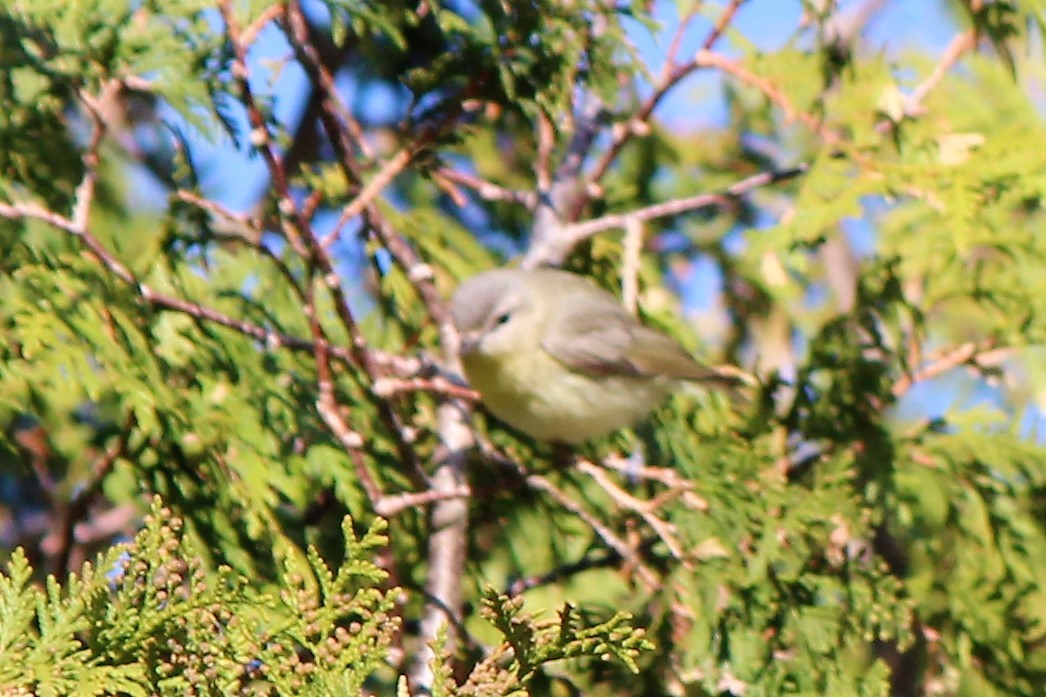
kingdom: Animalia
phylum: Chordata
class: Aves
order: Passeriformes
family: Vireonidae
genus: Vireo
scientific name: Vireo philadelphicus
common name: Philadelphia vireo
